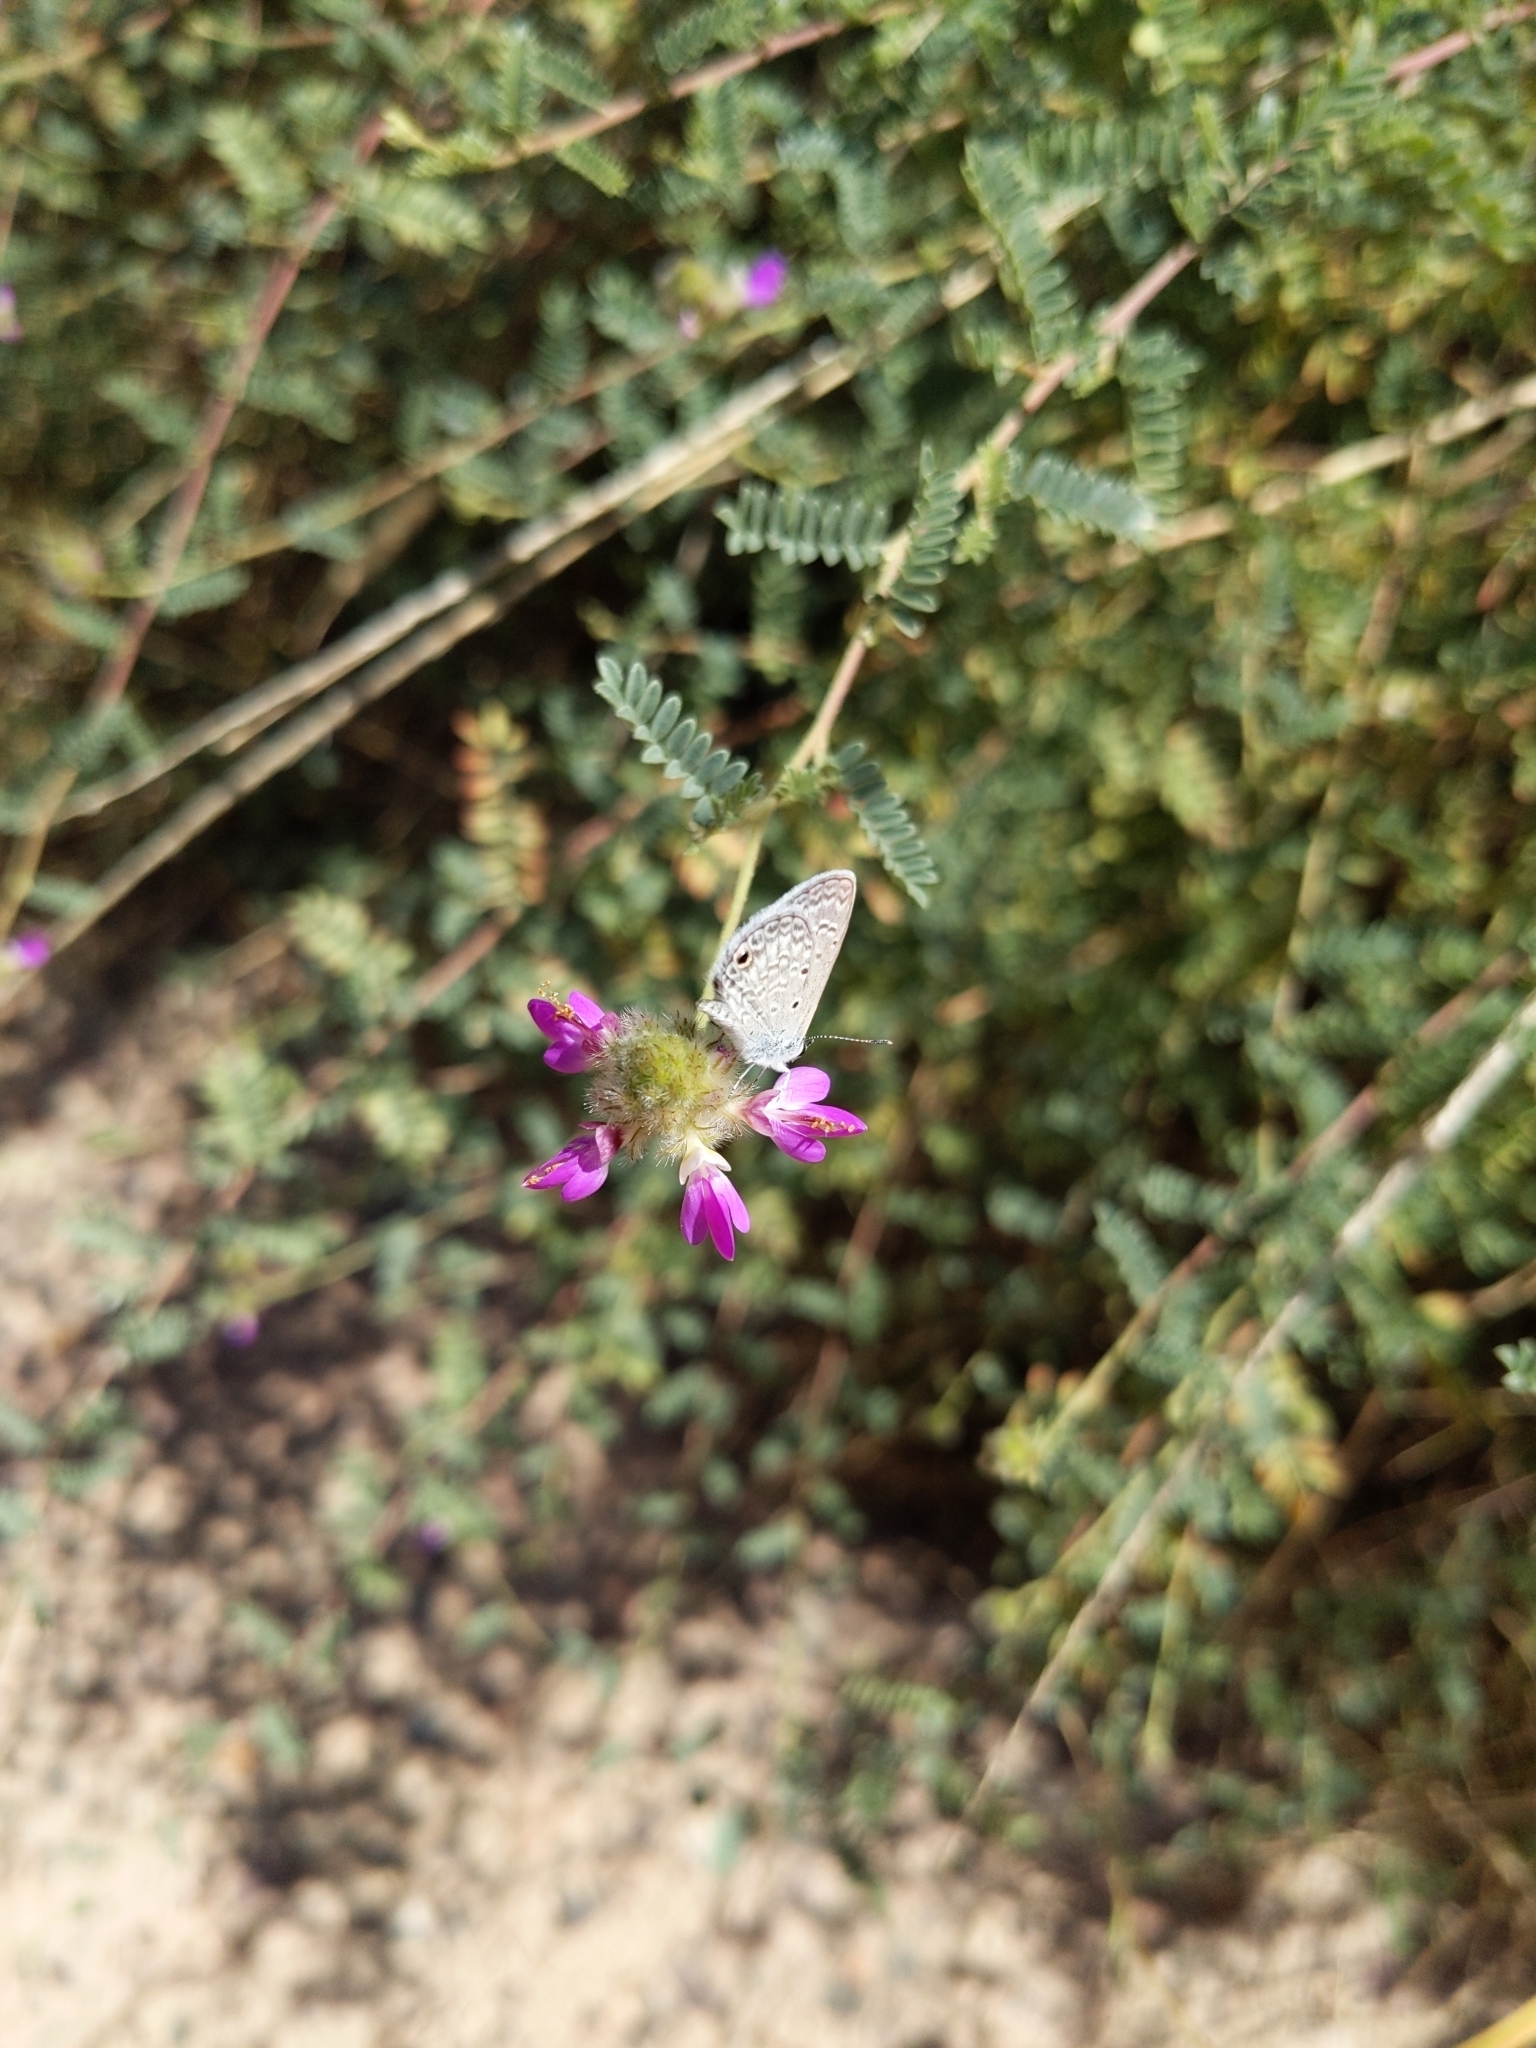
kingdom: Animalia
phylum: Arthropoda
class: Insecta
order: Lepidoptera
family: Lycaenidae
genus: Hemiargus
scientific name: Hemiargus ceraunus
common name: Ceraunus blue
